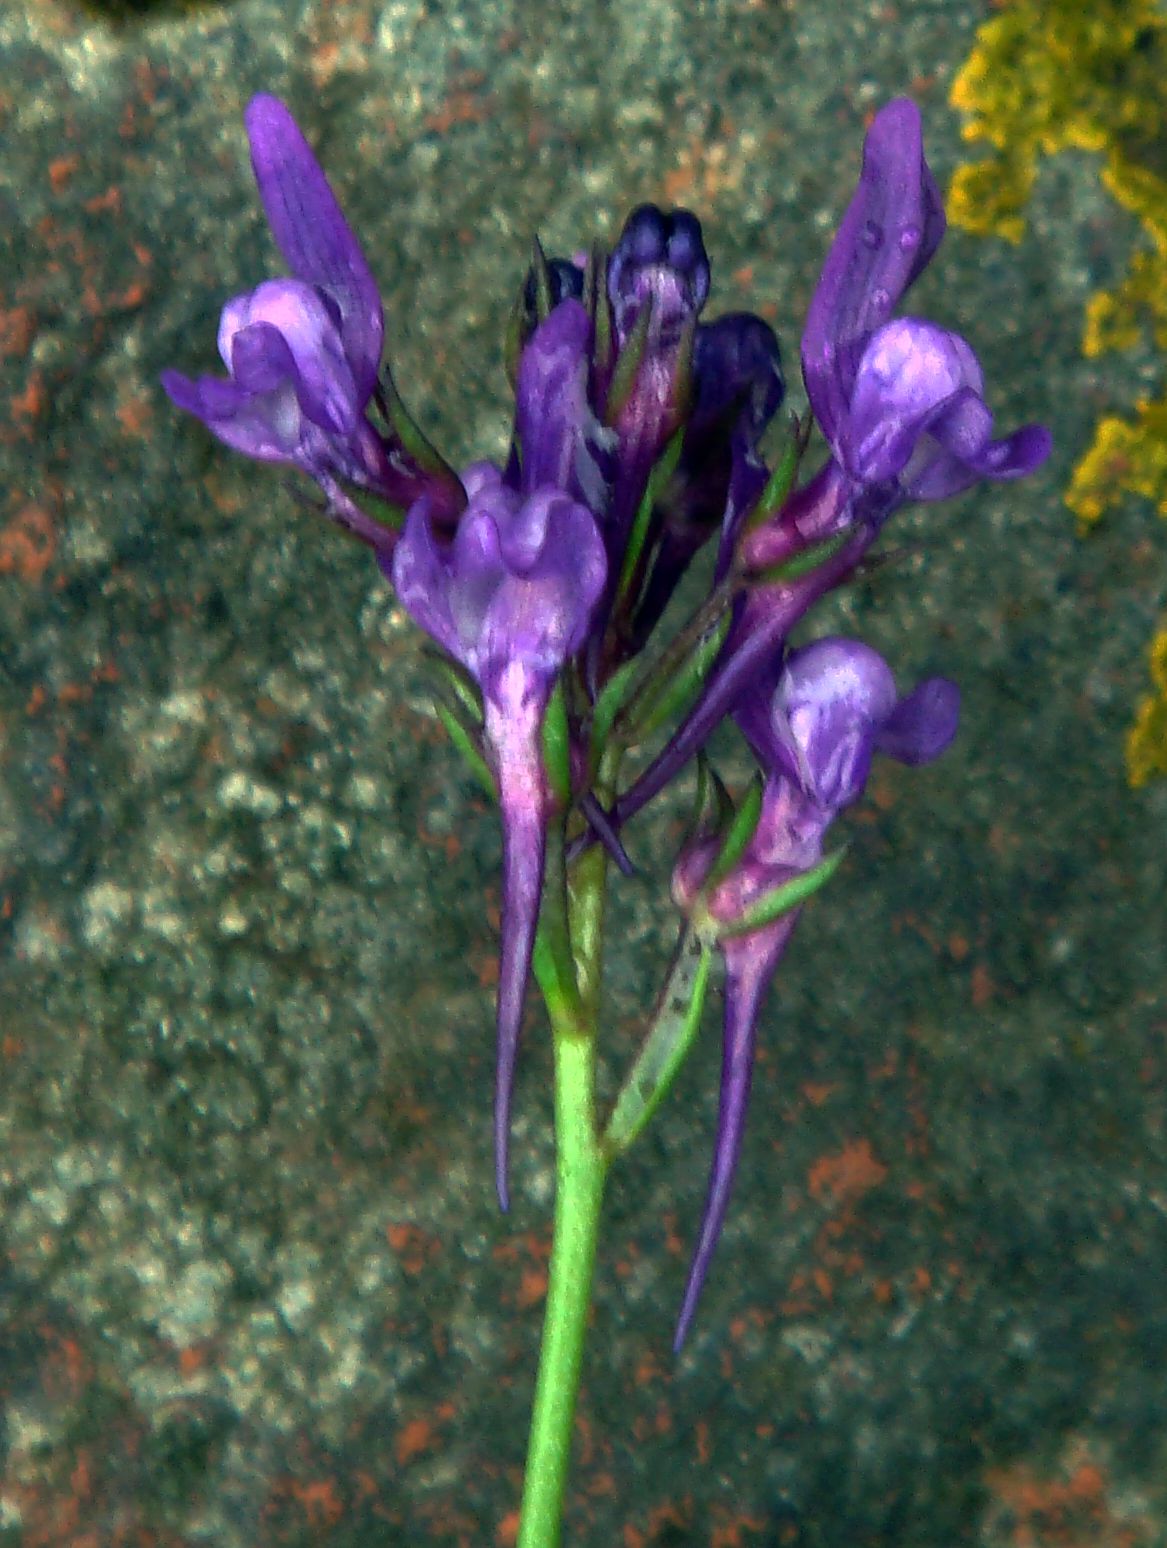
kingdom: Plantae
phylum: Tracheophyta
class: Magnoliopsida
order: Lamiales
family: Plantaginaceae
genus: Linaria
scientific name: Linaria pelisseriana
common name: Jersey toadflax
